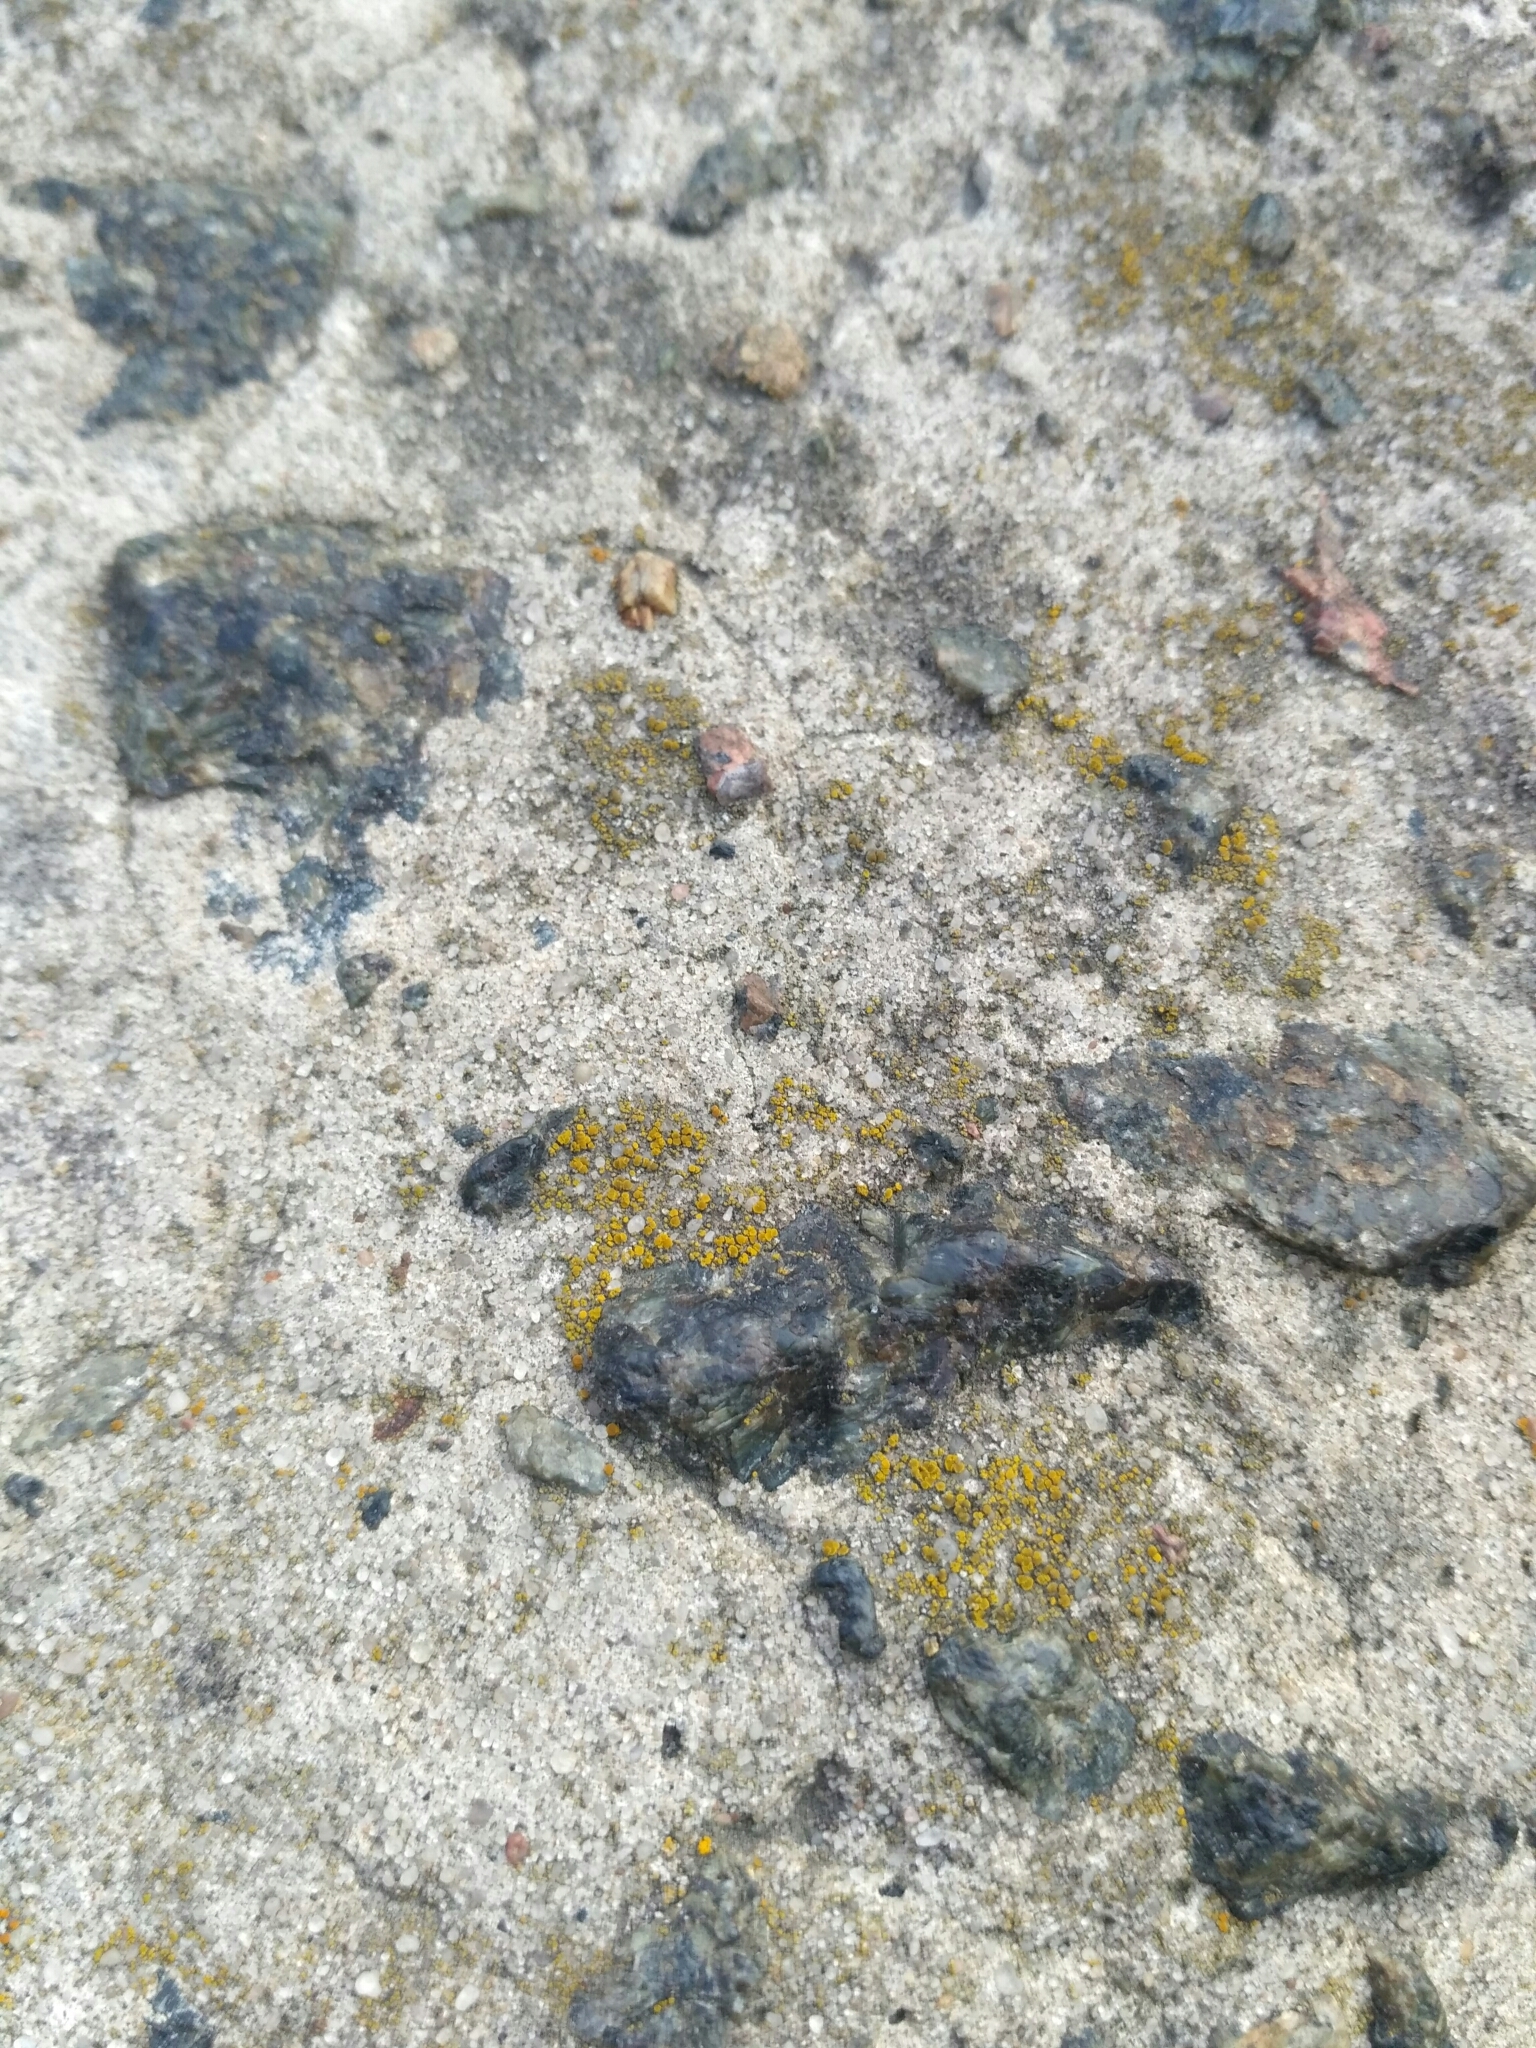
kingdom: Fungi
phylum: Ascomycota
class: Candelariomycetes
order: Candelariales
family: Candelariaceae
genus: Candelariella
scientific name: Candelariella aurella
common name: Hidden goldspeck lichen
